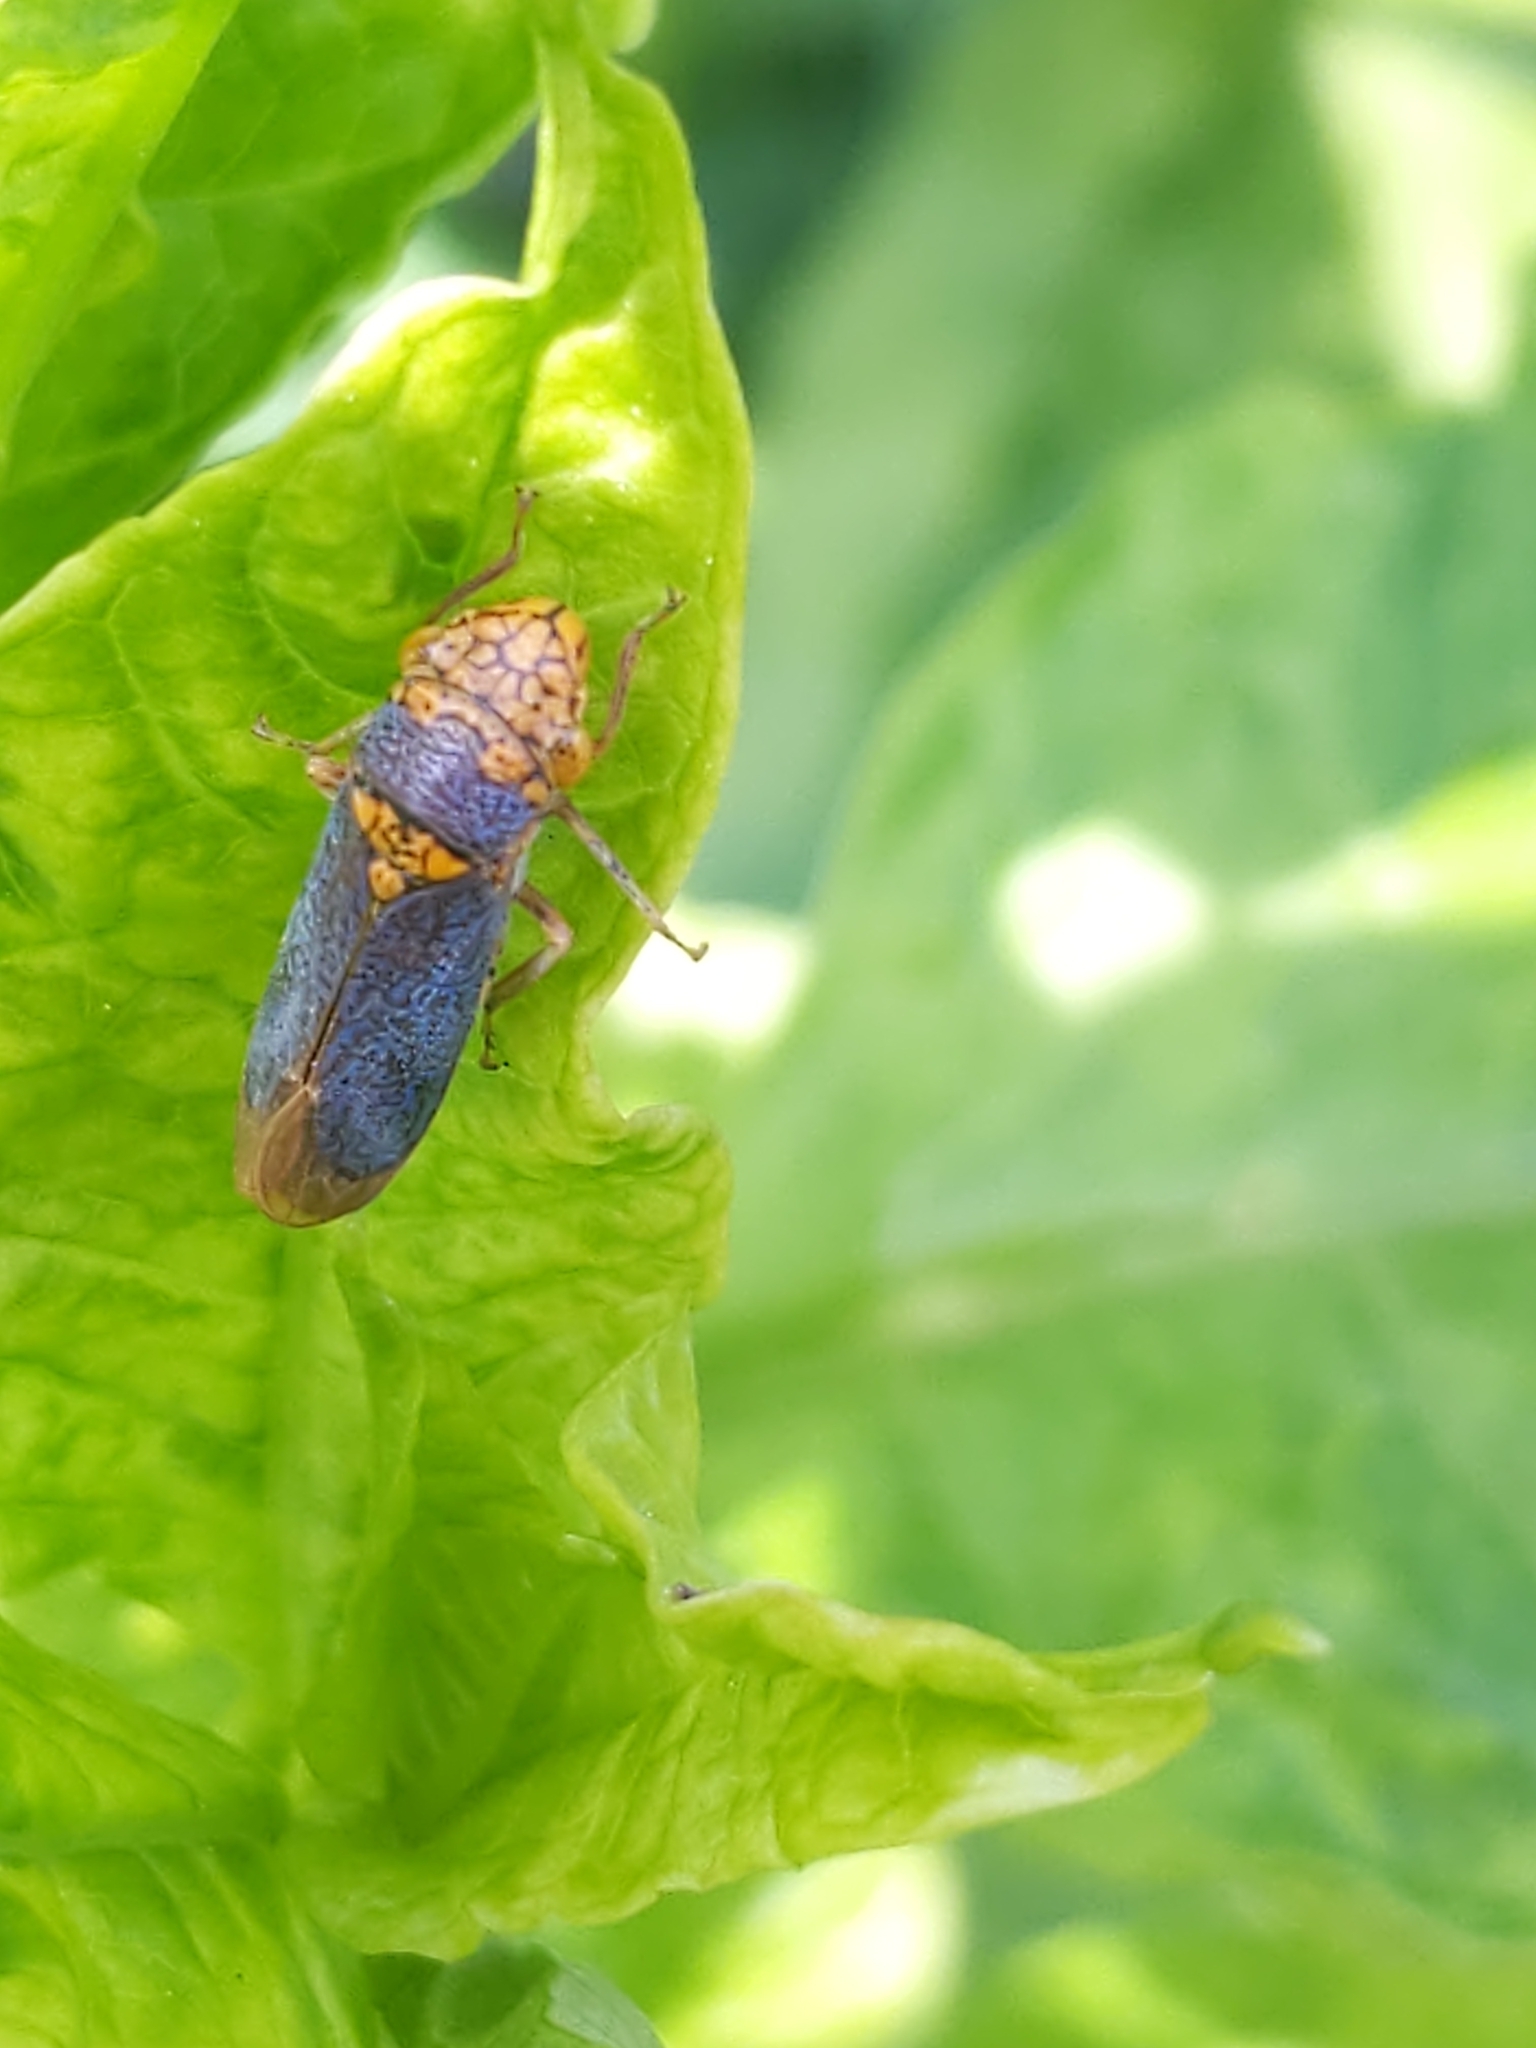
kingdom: Animalia
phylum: Arthropoda
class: Insecta
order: Hemiptera
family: Cicadellidae
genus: Oncometopia
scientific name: Oncometopia orbona
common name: Broad-headed sharpshooter
